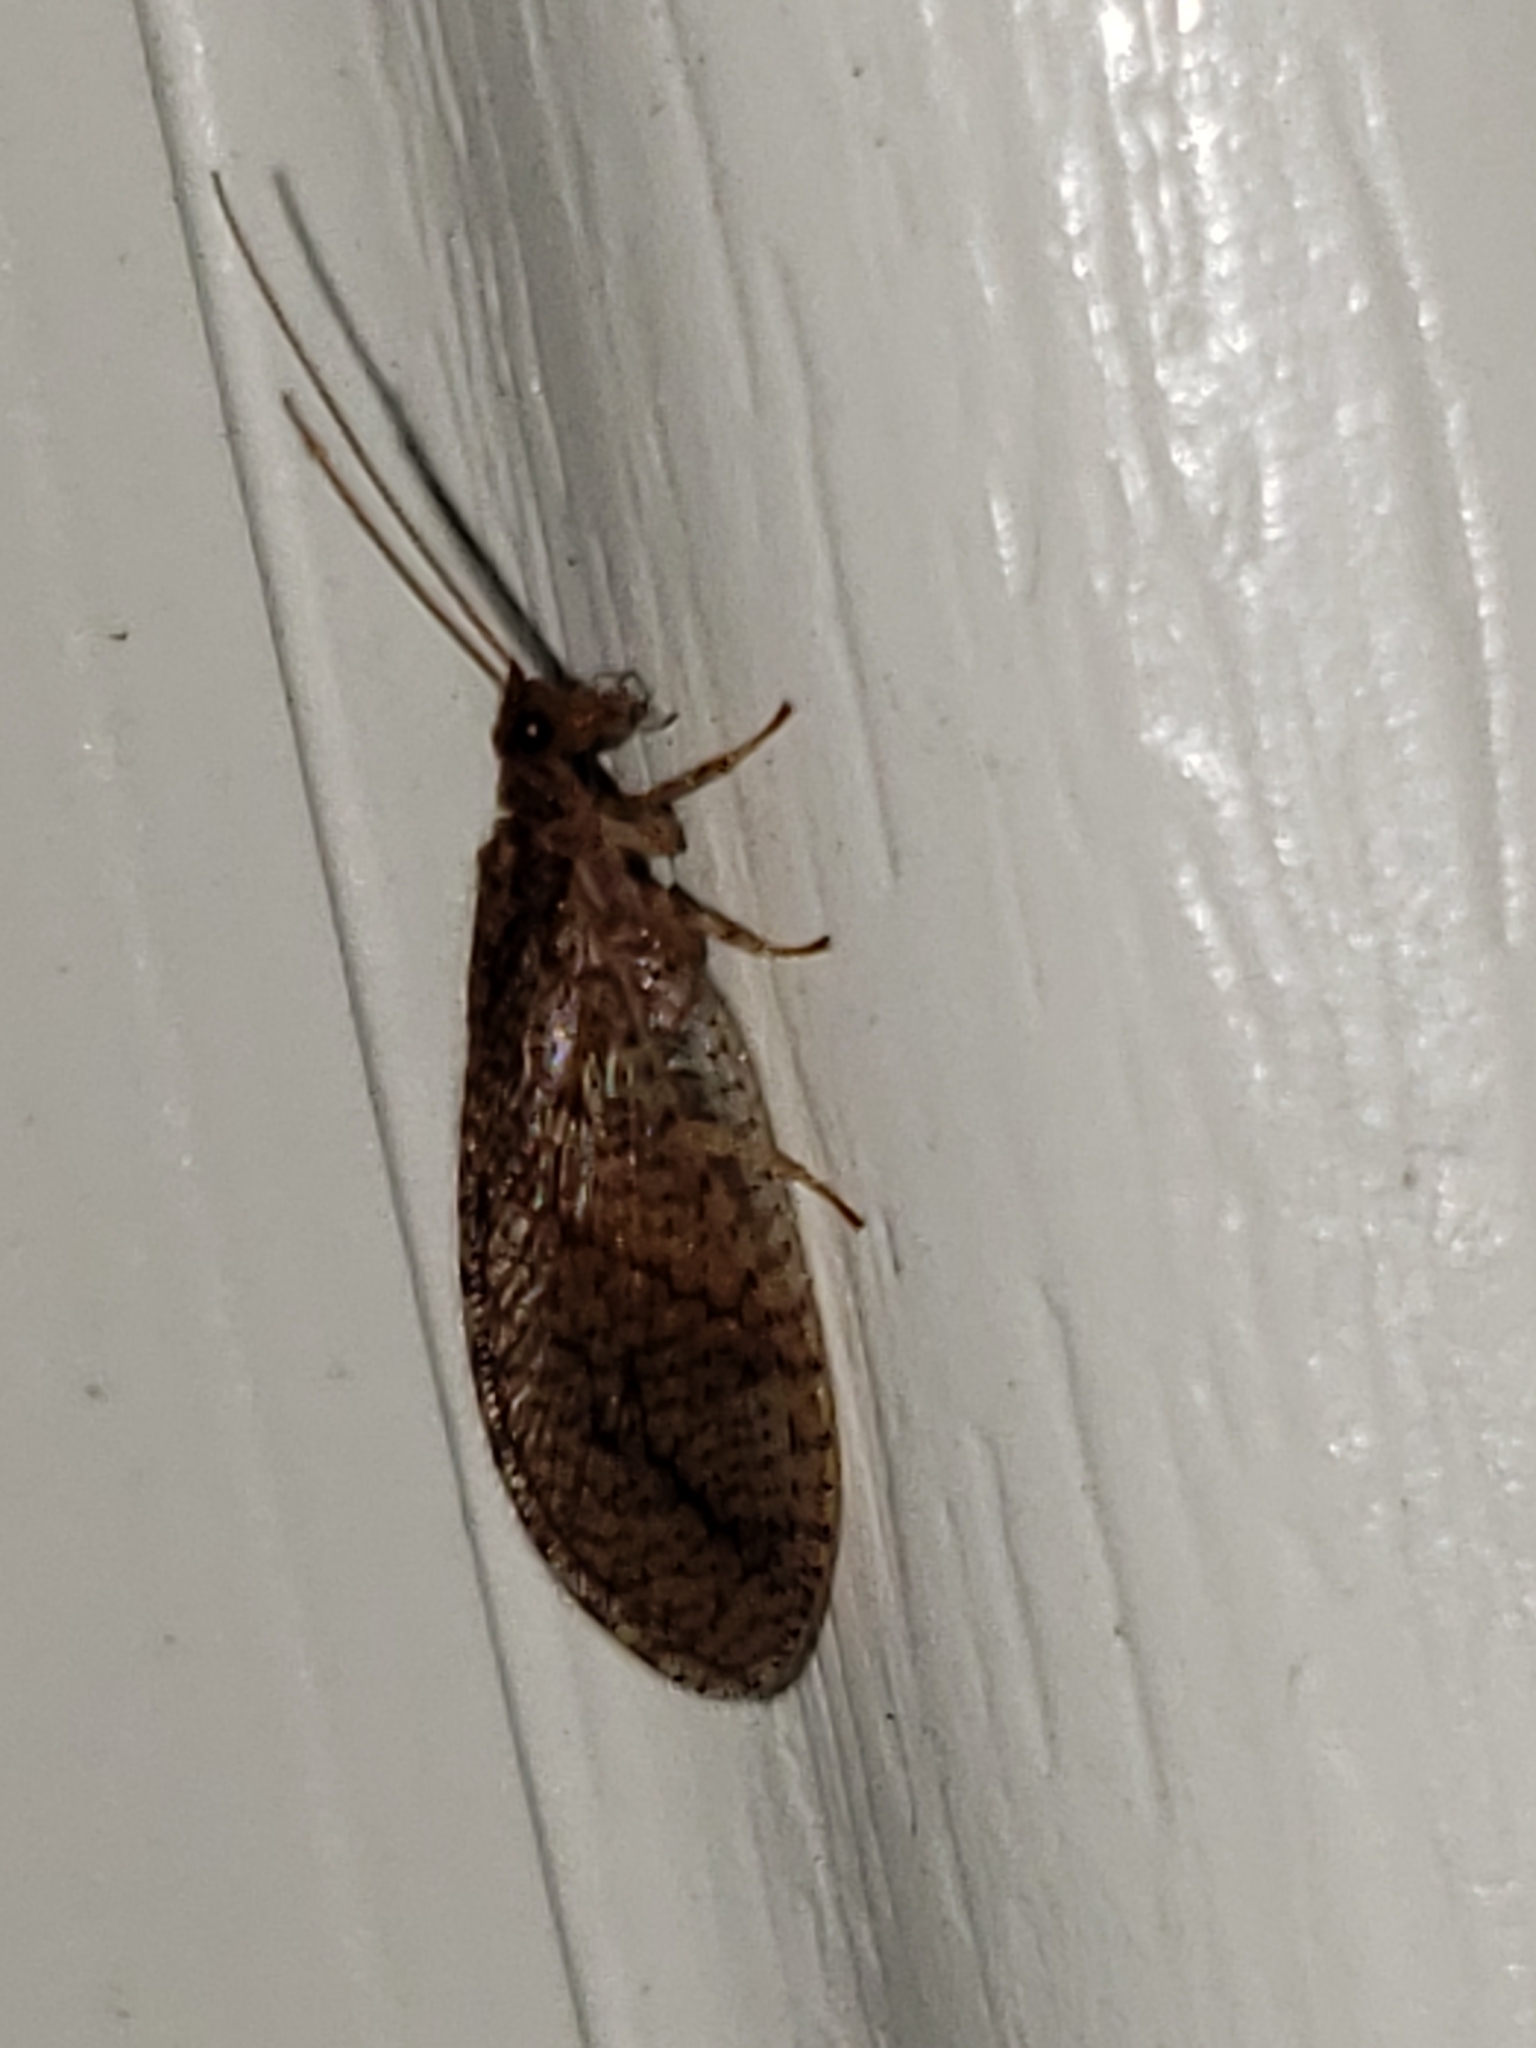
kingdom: Animalia
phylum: Arthropoda
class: Insecta
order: Neuroptera
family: Hemerobiidae
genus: Micromus
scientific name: Micromus posticus
